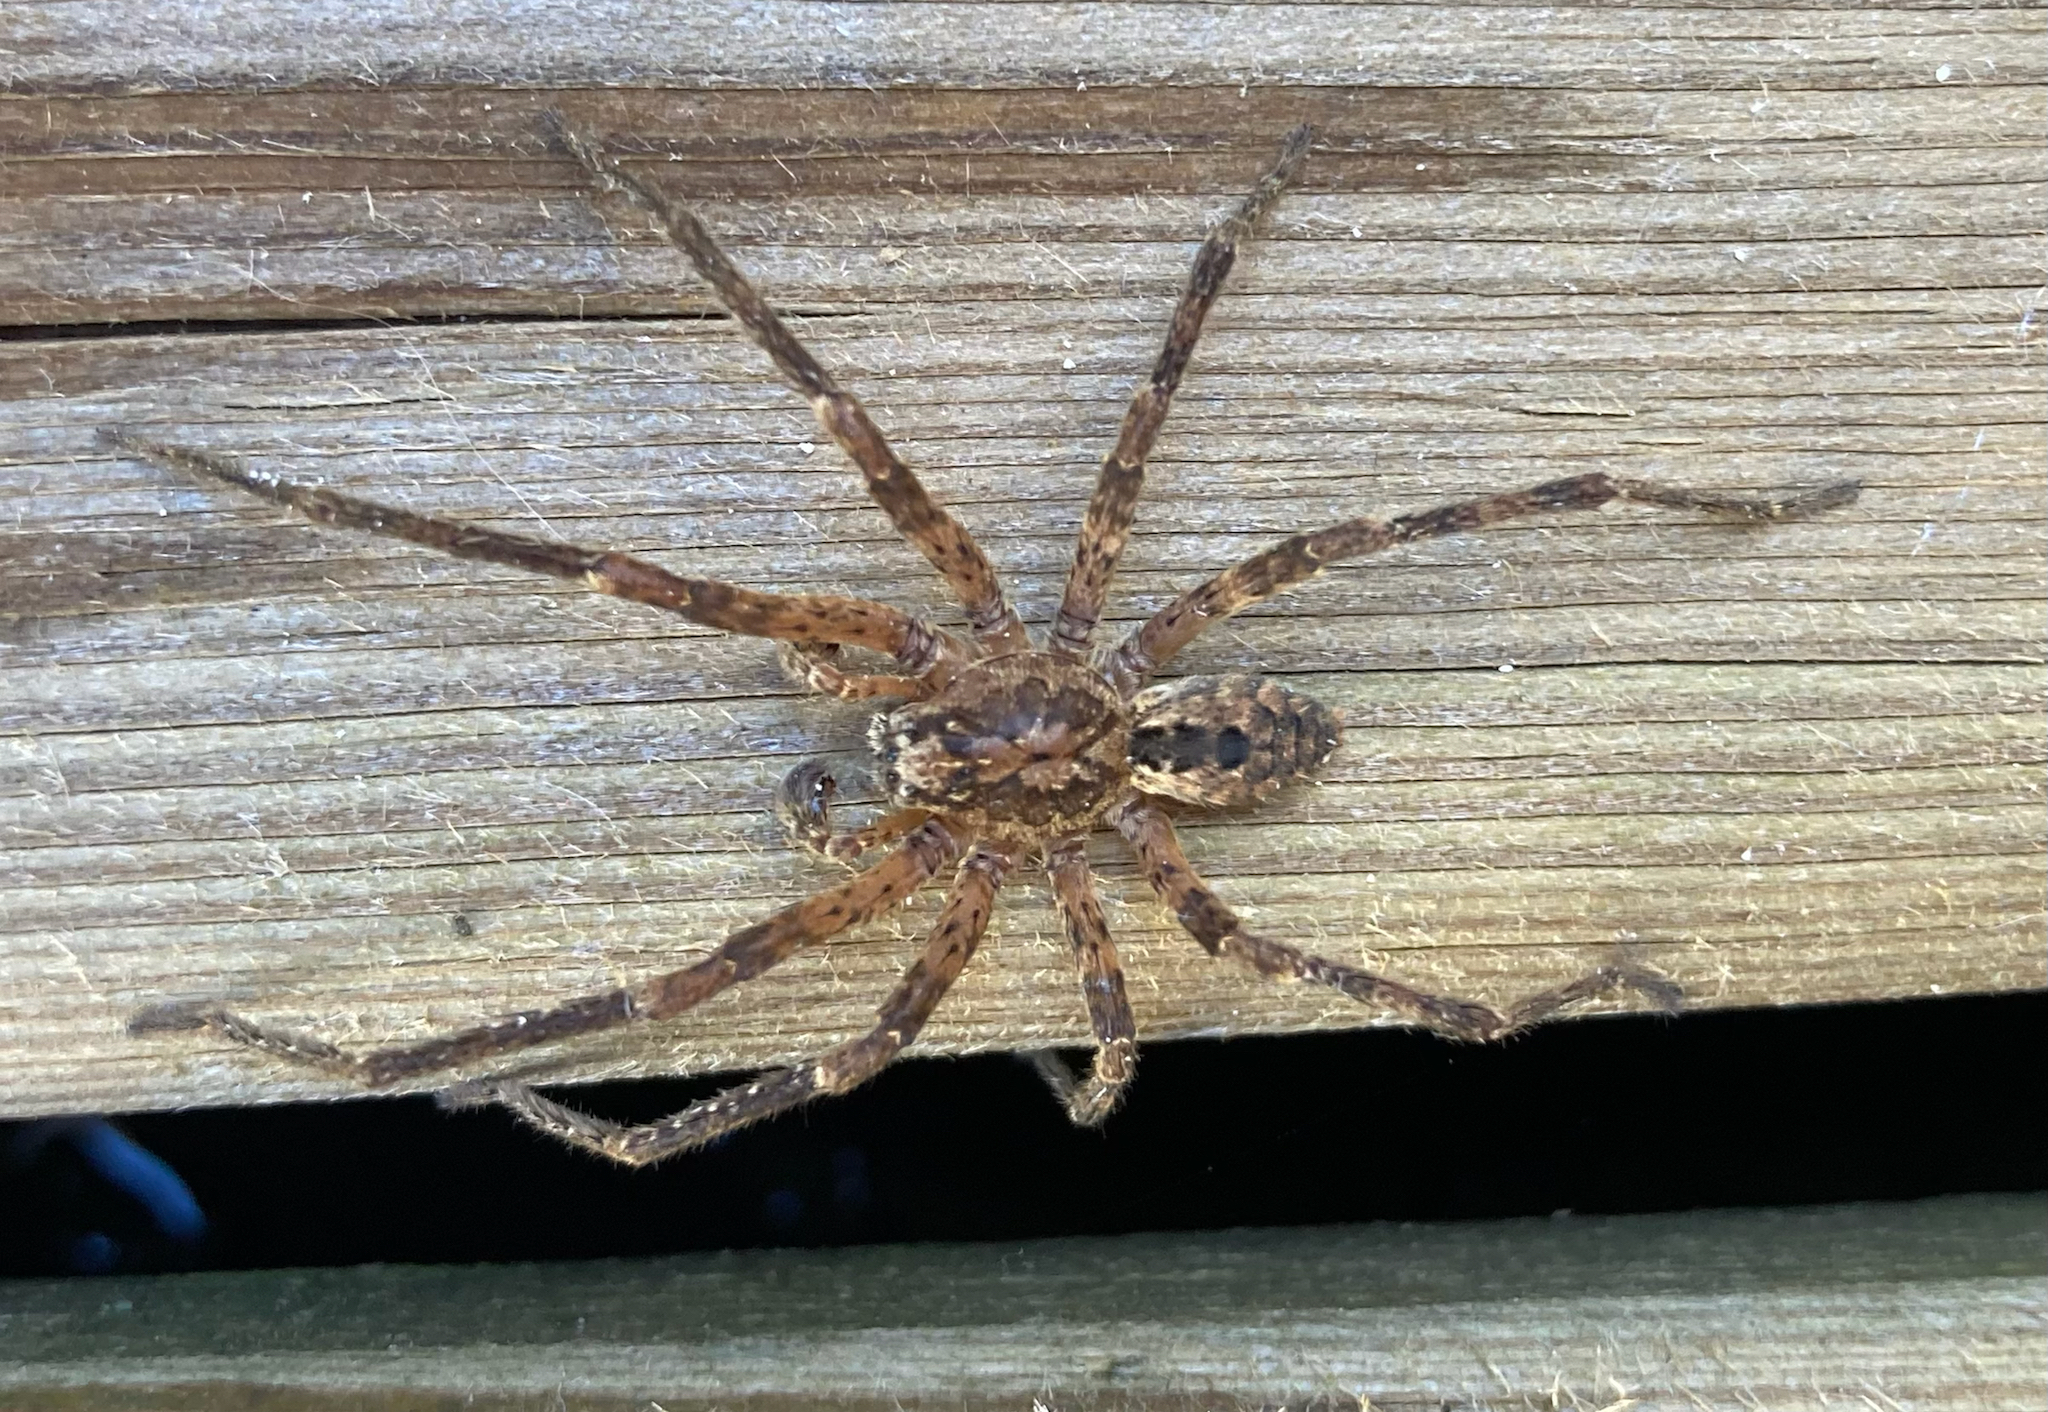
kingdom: Animalia
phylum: Arthropoda
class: Arachnida
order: Araneae
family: Zoropsidae
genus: Zoropsis
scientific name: Zoropsis spinimana
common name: Zoropsid spider
